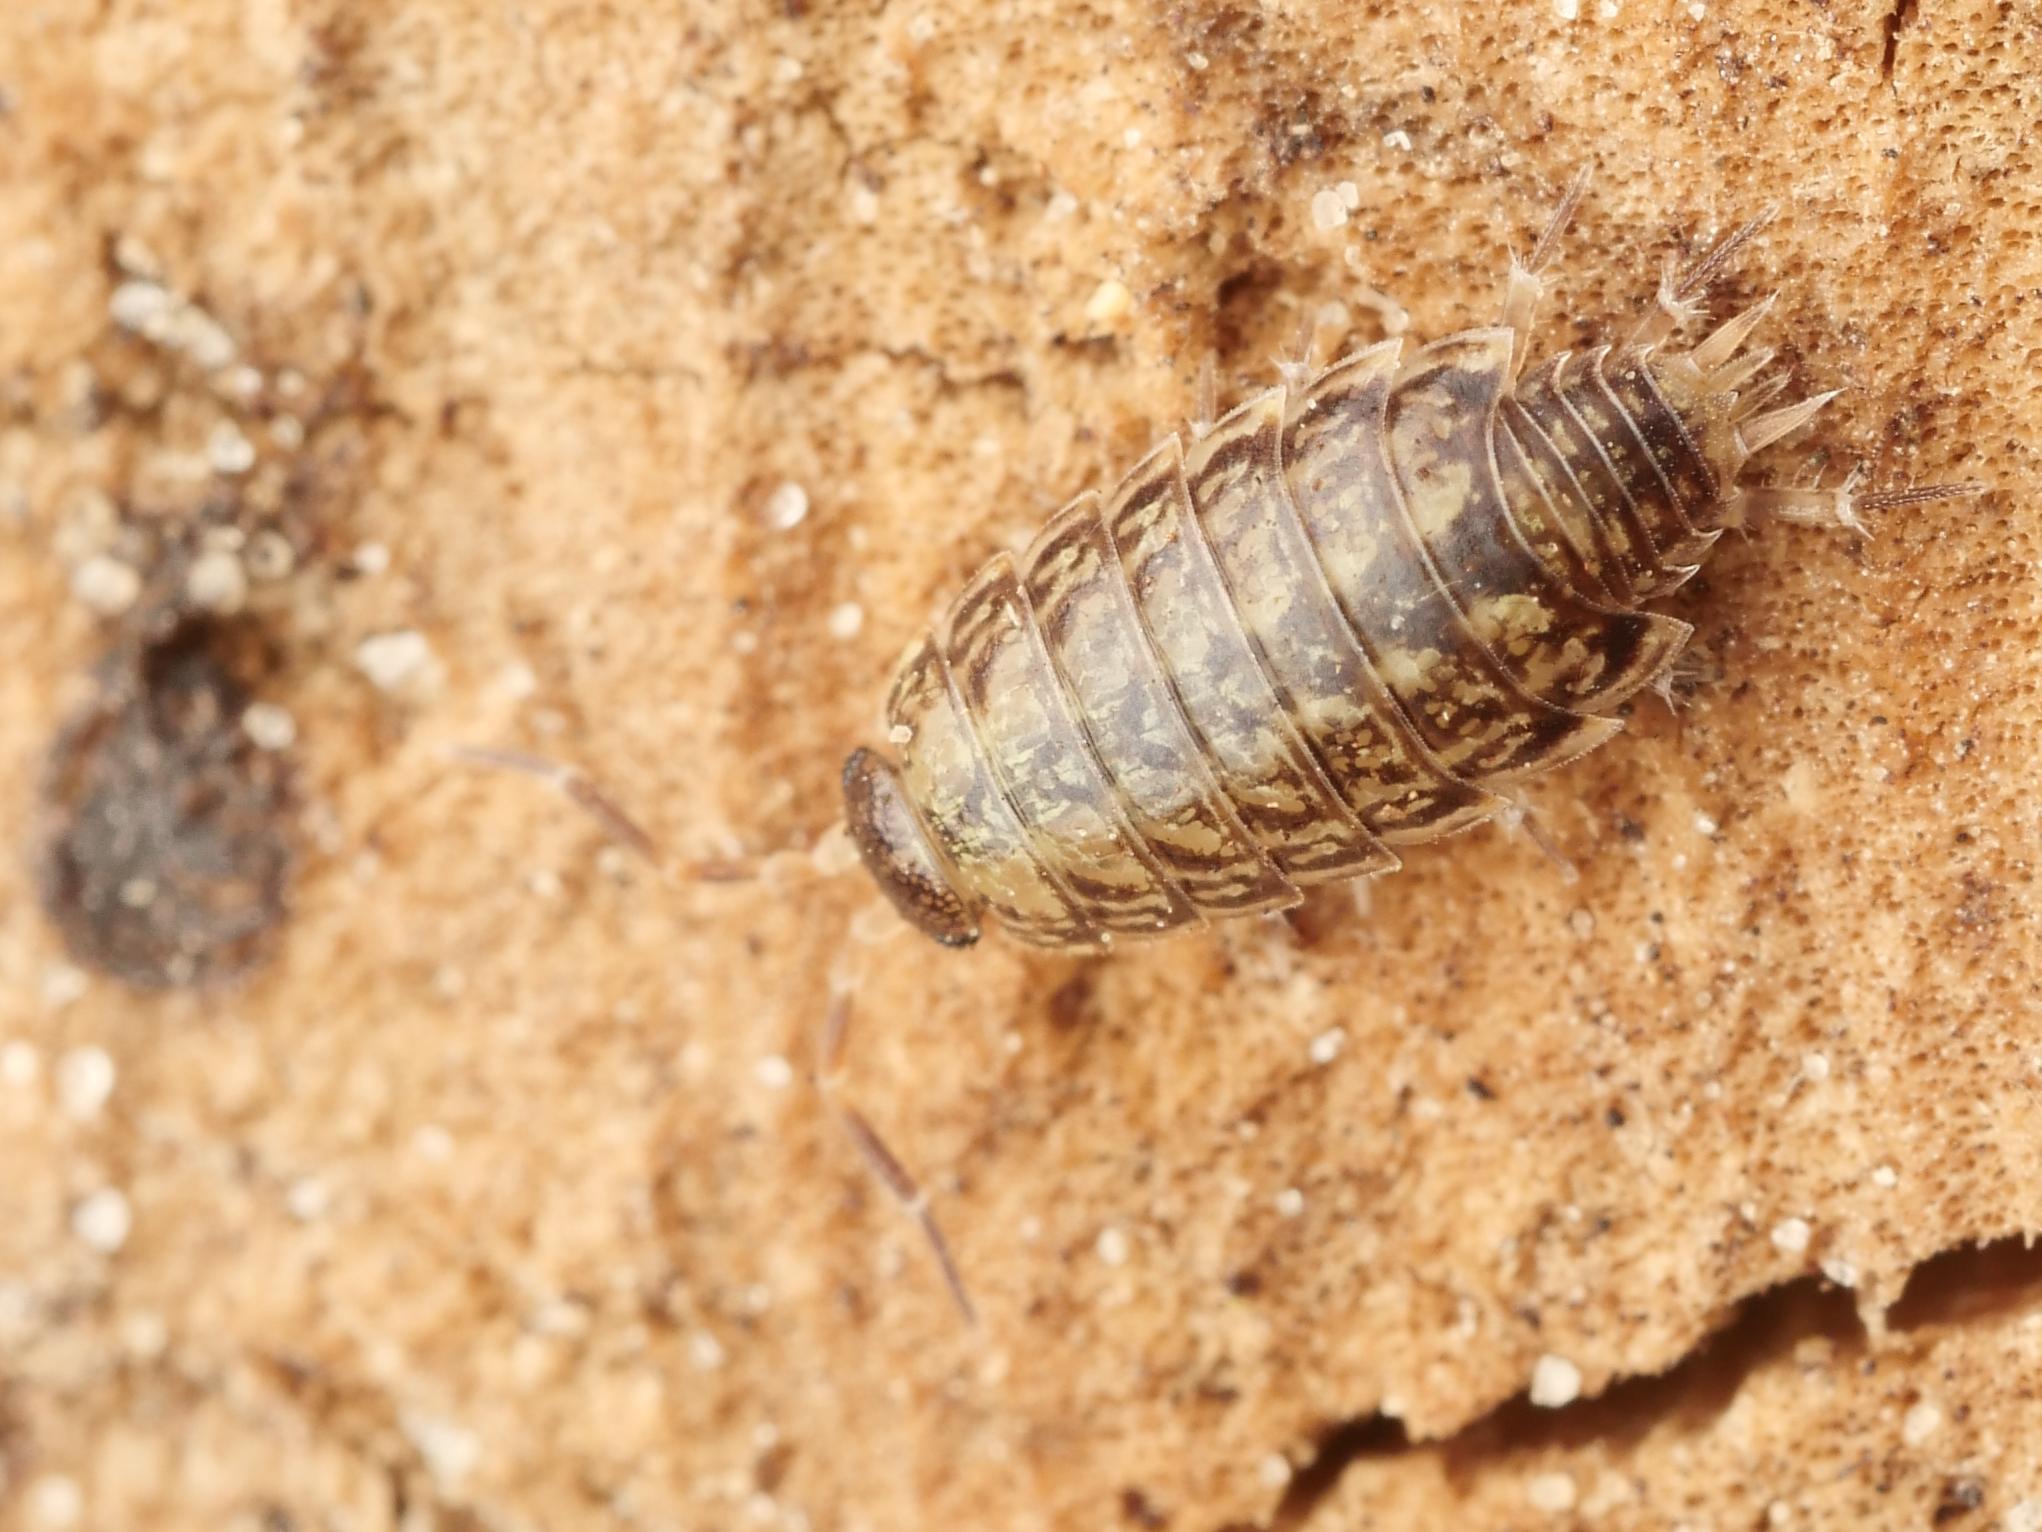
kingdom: Animalia
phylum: Arthropoda
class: Malacostraca
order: Isopoda
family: Philosciidae
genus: Philoscia
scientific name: Philoscia muscorum
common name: Common striped woodlouse
